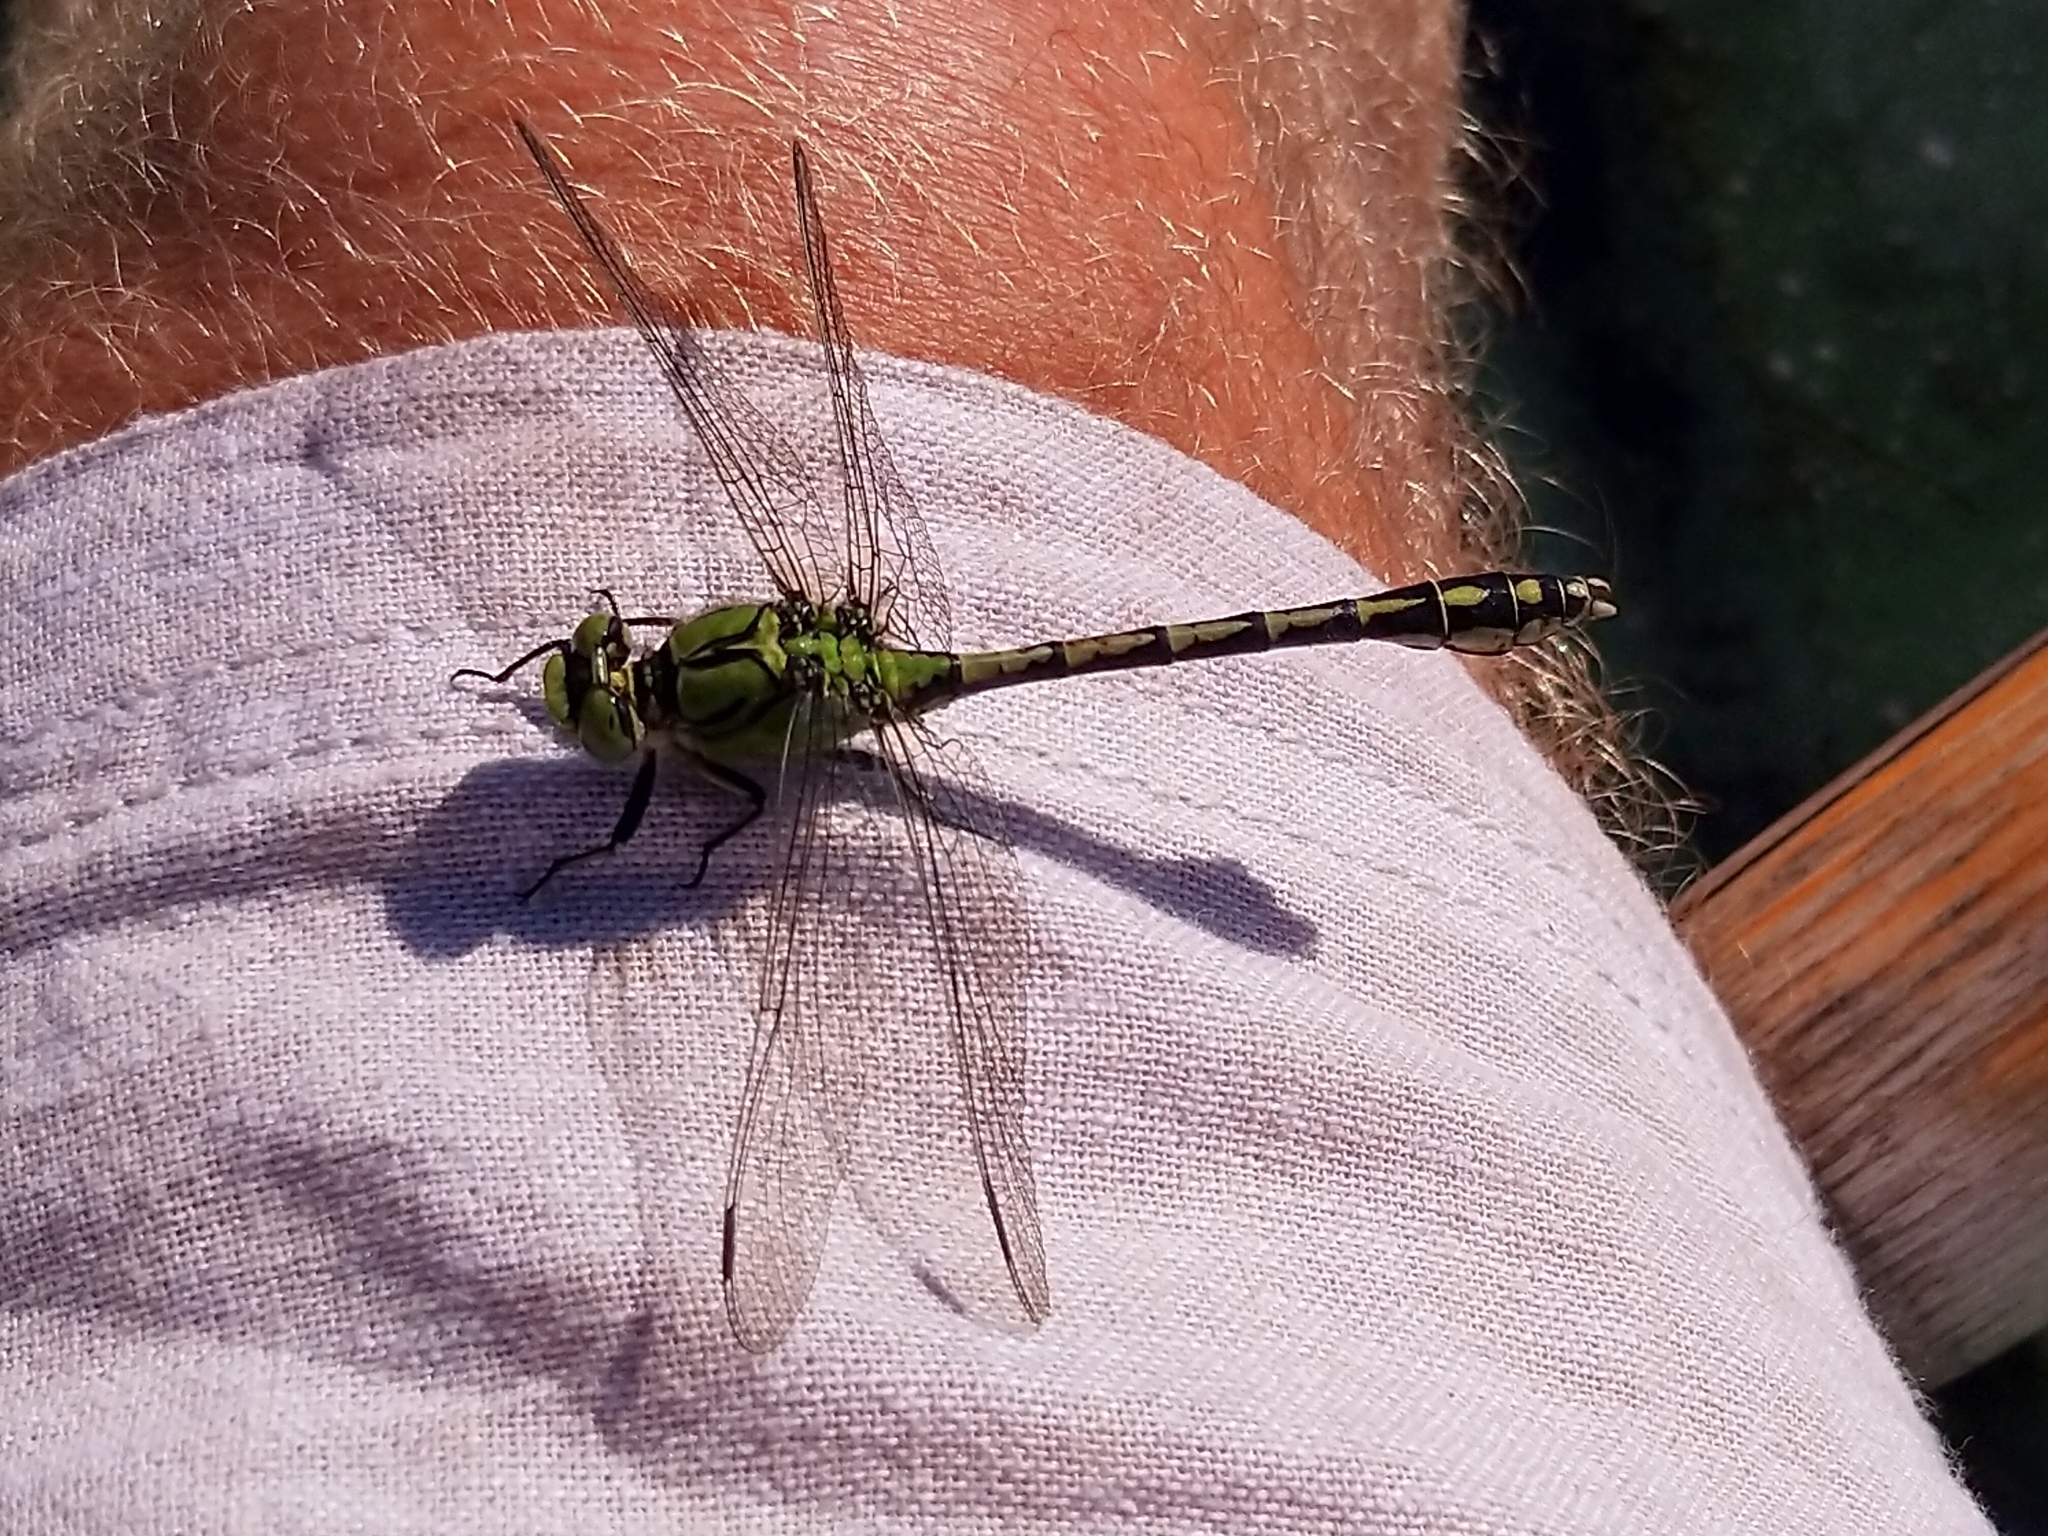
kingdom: Animalia
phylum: Arthropoda
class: Insecta
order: Odonata
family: Gomphidae
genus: Ophiogomphus
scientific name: Ophiogomphus cecilia
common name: Green snaketail
